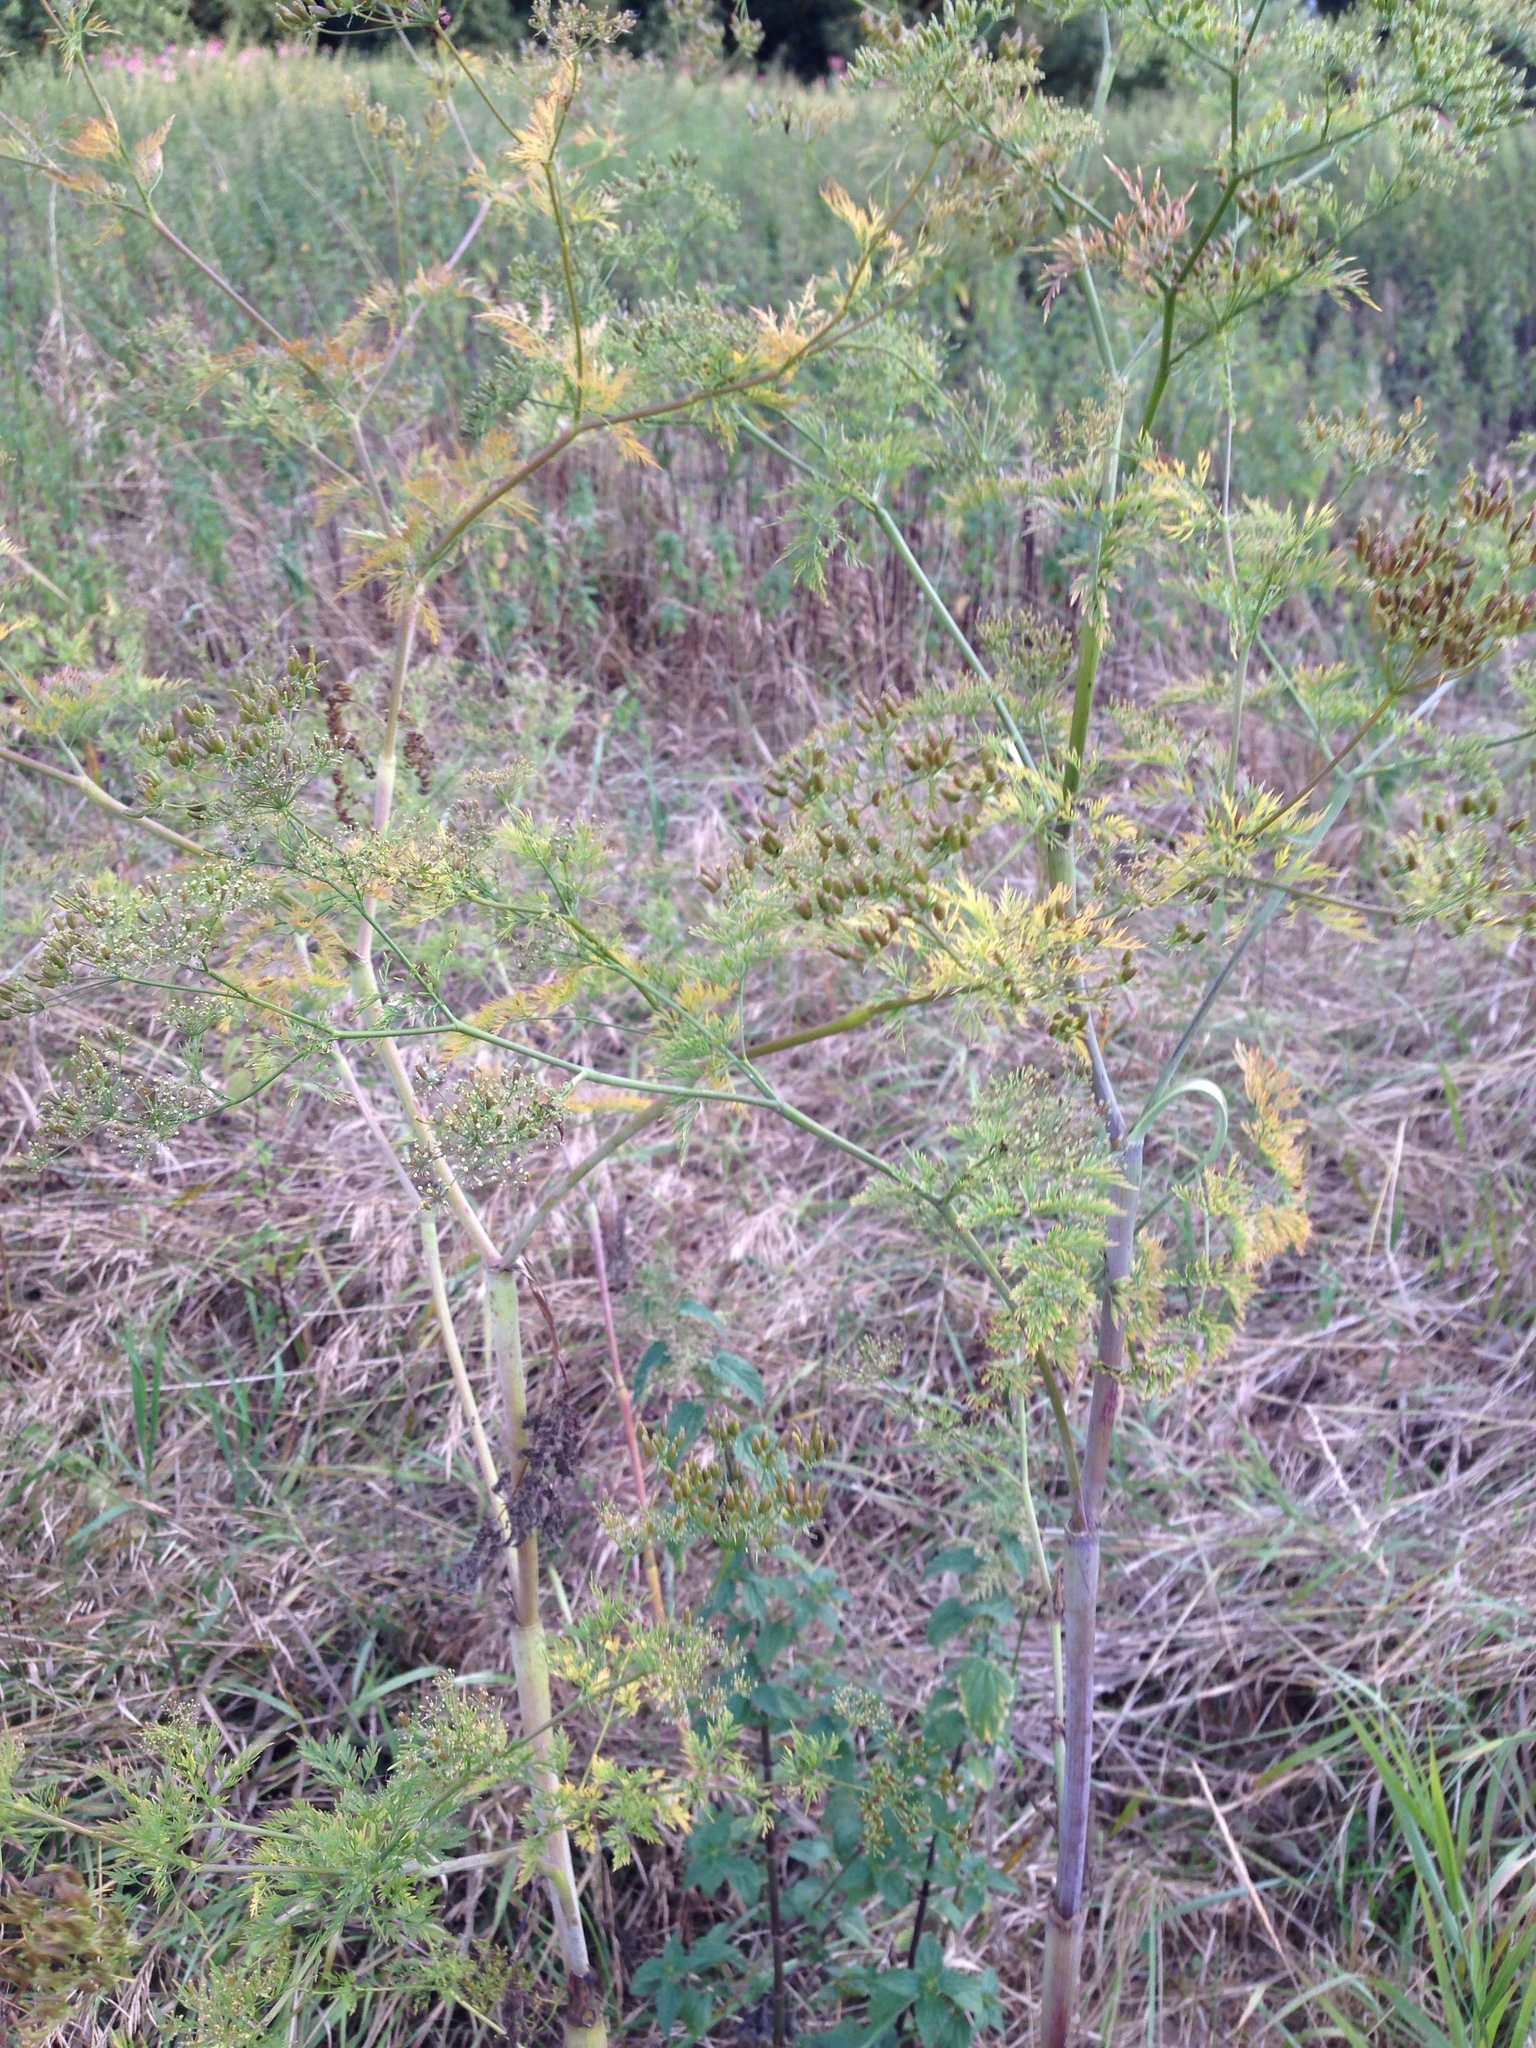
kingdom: Plantae
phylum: Tracheophyta
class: Magnoliopsida
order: Apiales
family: Apiaceae
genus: Chaerophyllum
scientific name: Chaerophyllum bulbosum
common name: Bulbous chervil
